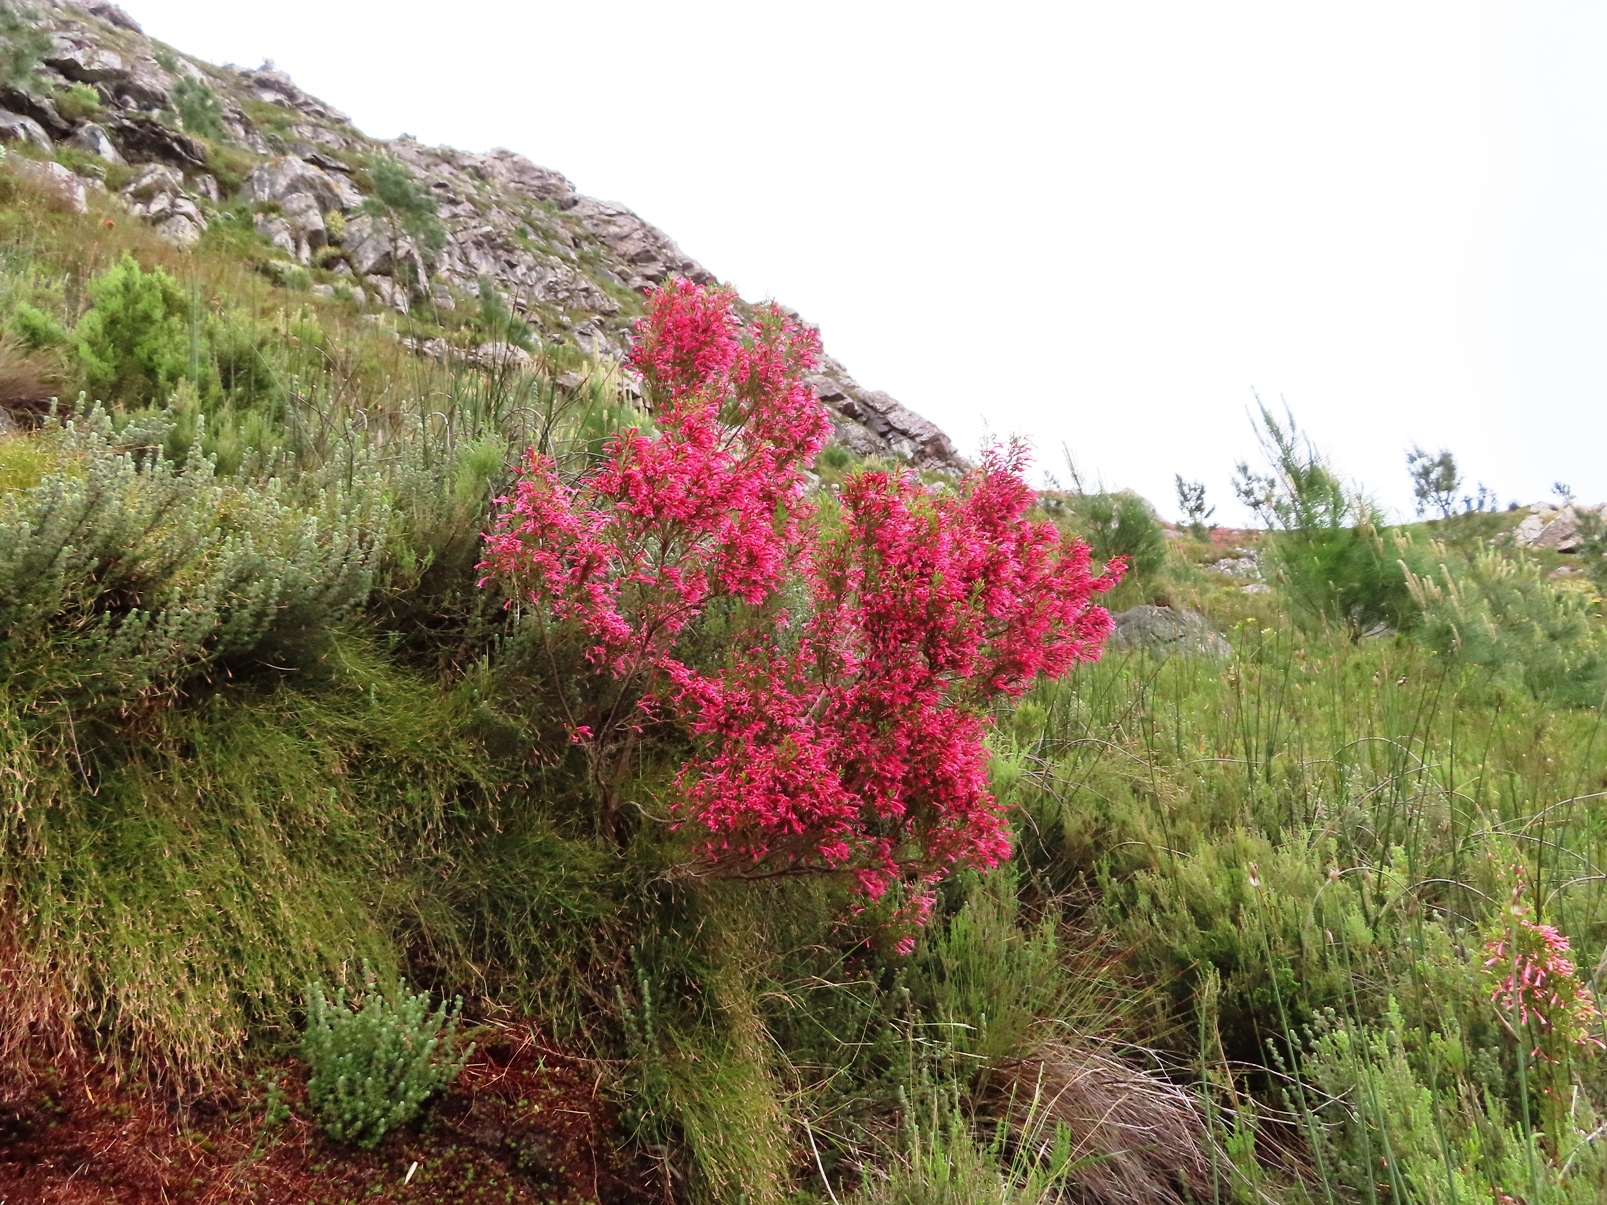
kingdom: Plantae
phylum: Tracheophyta
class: Magnoliopsida
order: Ericales
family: Ericaceae
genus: Erica
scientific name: Erica curviflora
